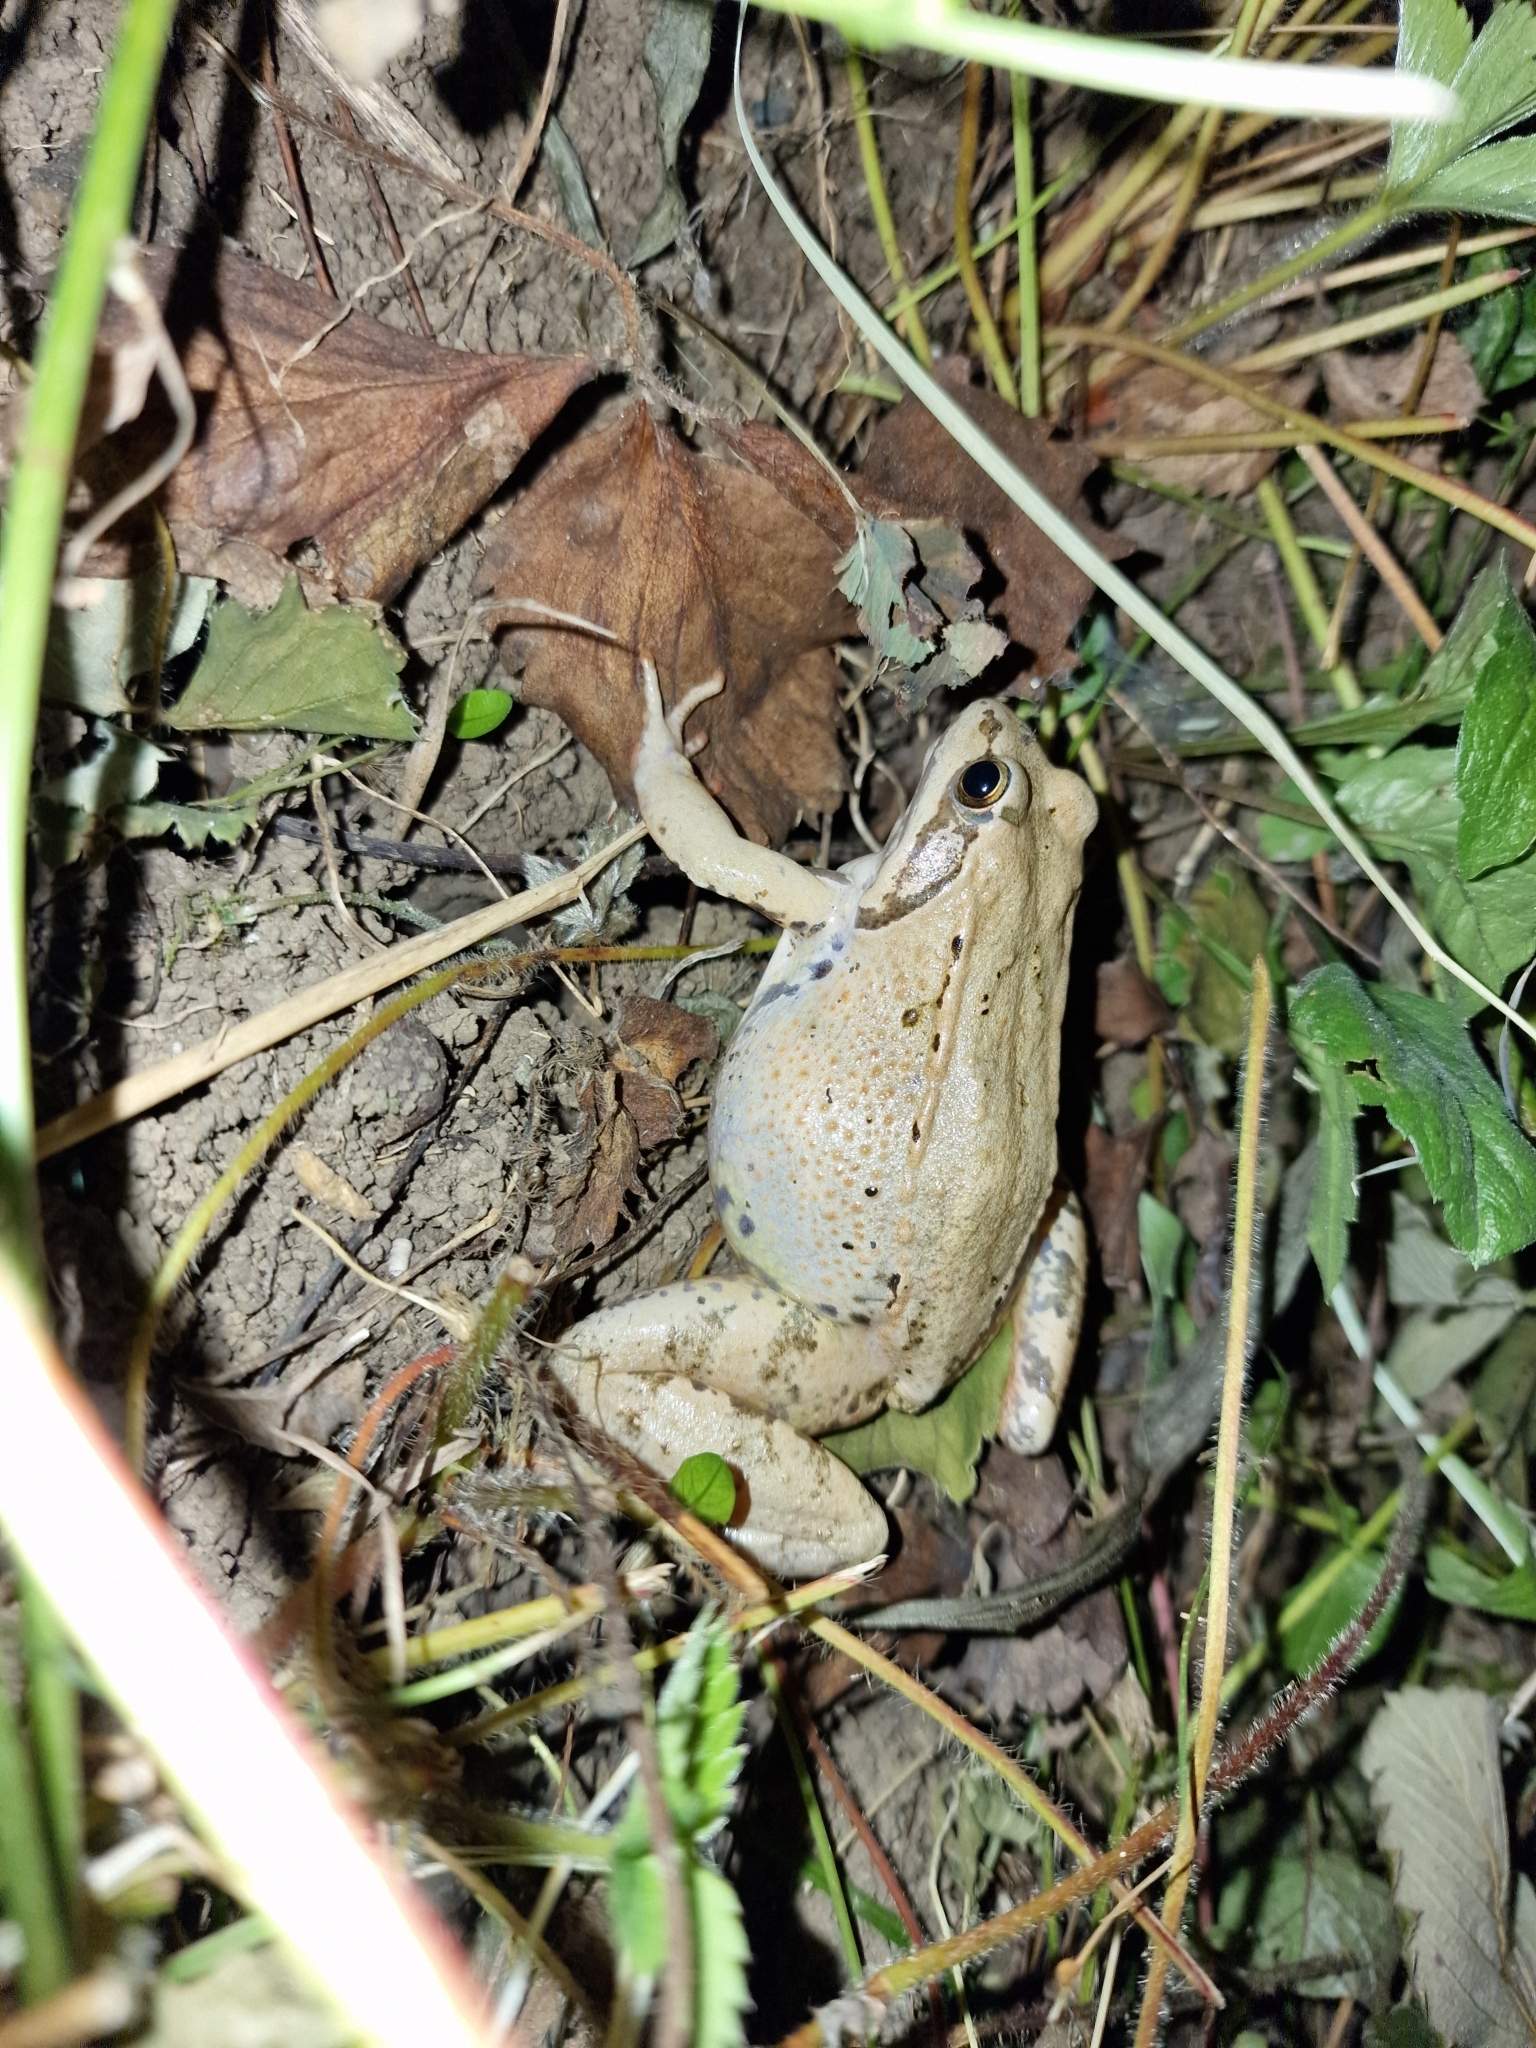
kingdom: Animalia
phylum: Chordata
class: Amphibia
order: Anura
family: Ranidae
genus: Rana
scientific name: Rana macrocnemis
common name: Banded frog
